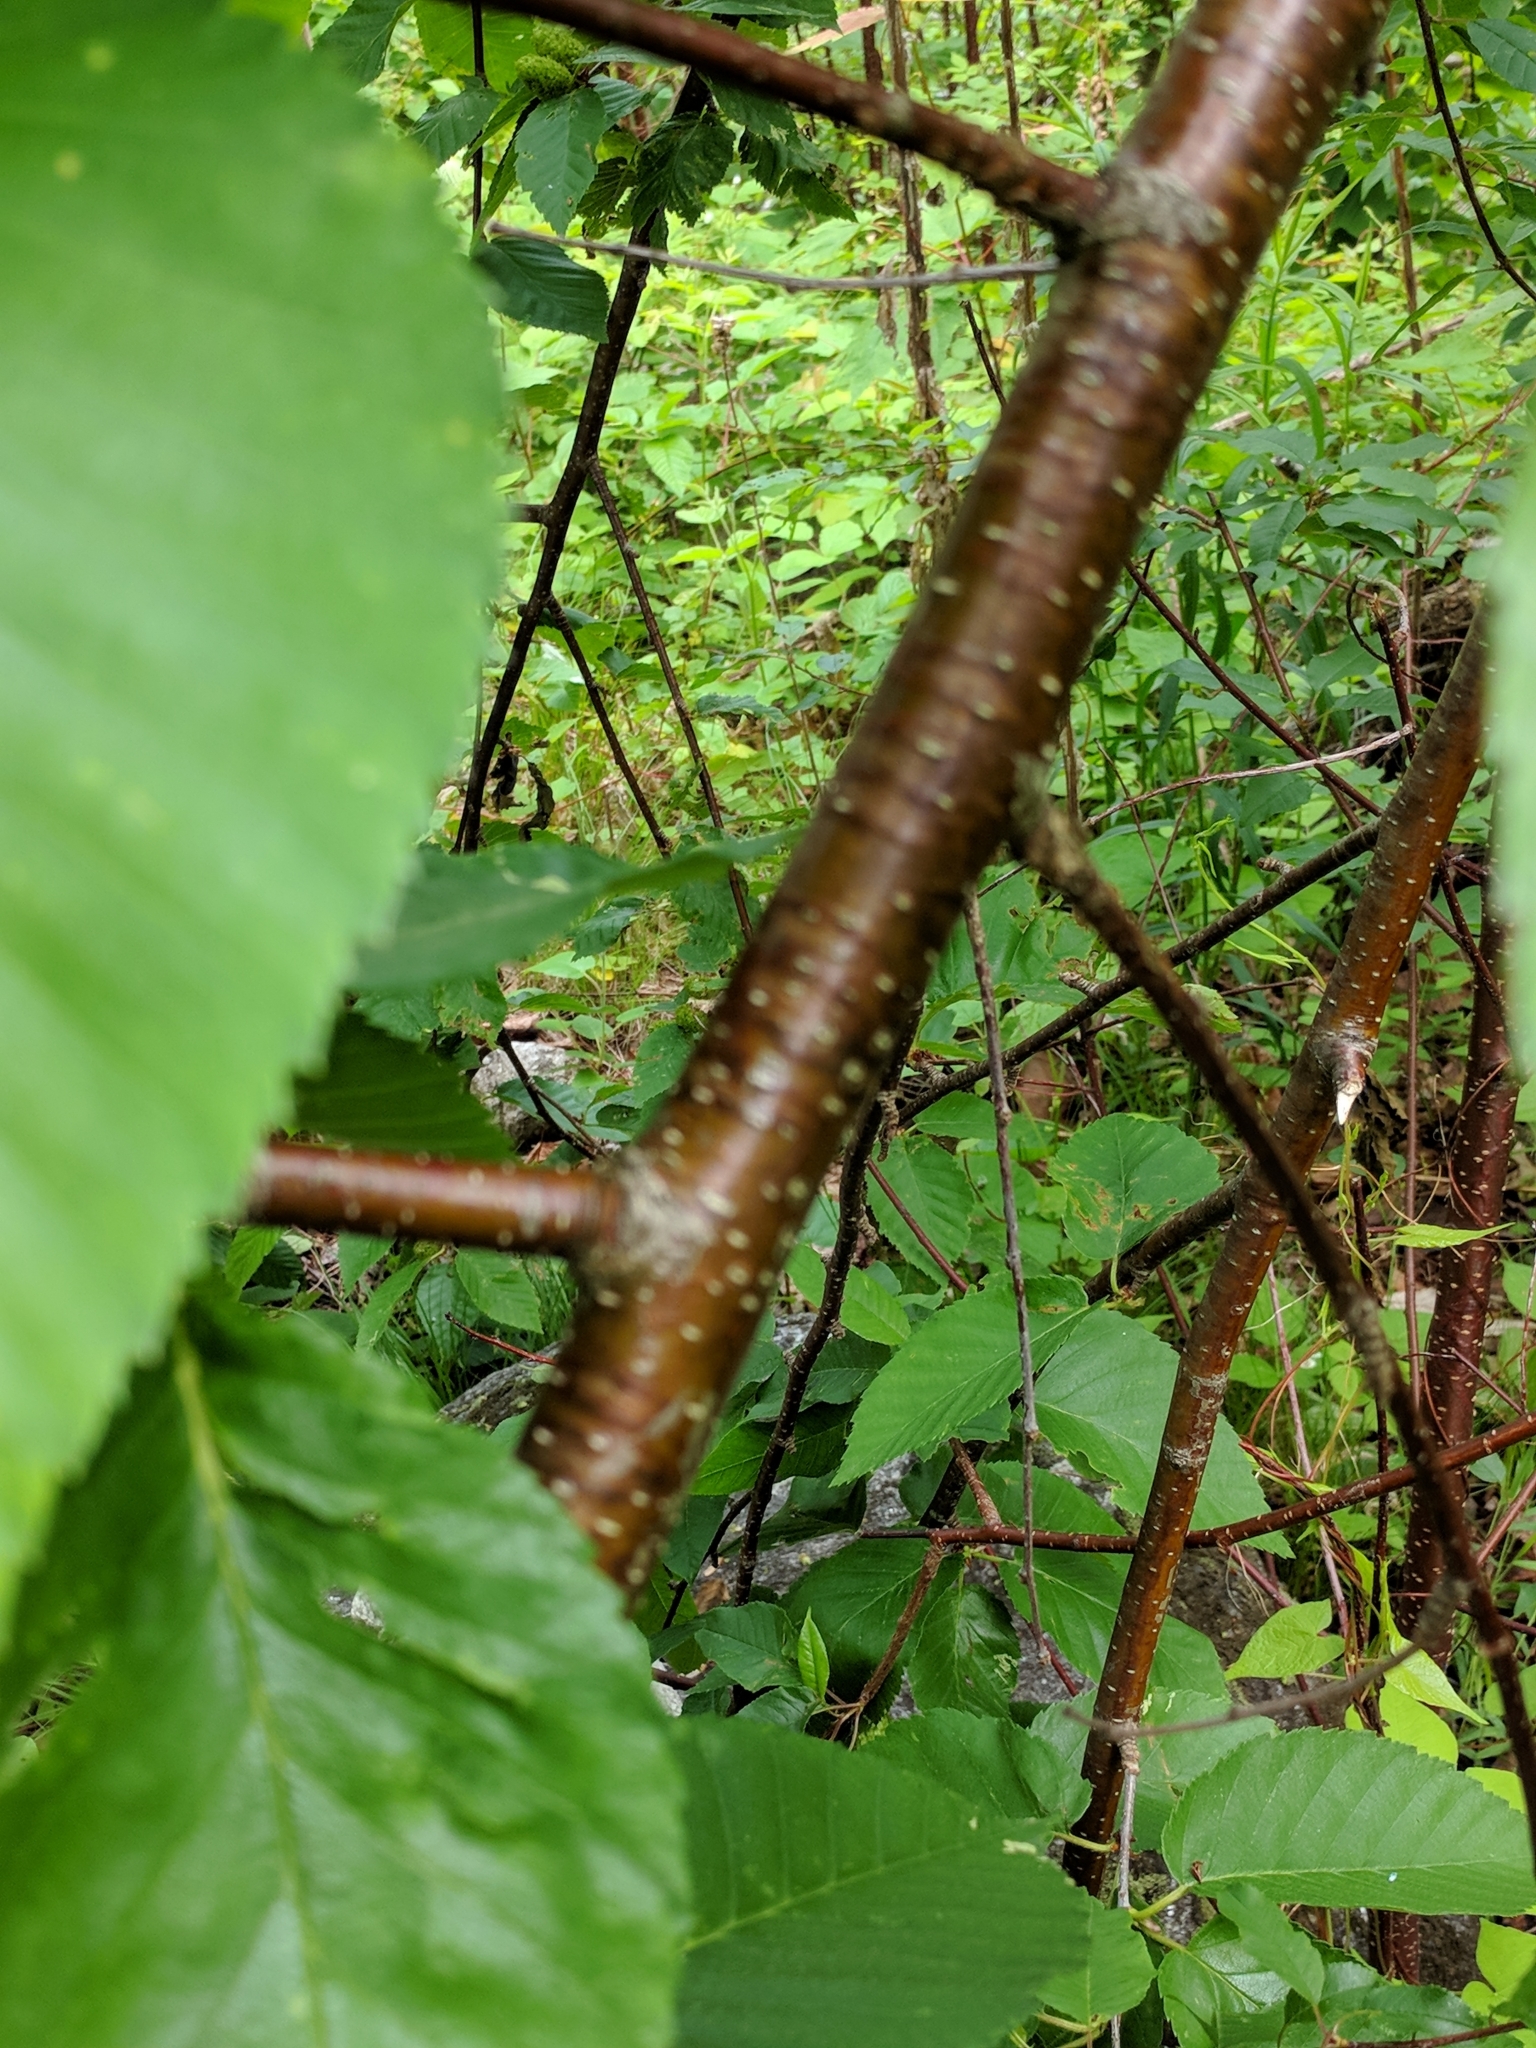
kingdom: Plantae
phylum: Tracheophyta
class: Magnoliopsida
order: Fagales
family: Betulaceae
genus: Betula
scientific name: Betula alleghaniensis
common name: Yellow birch
